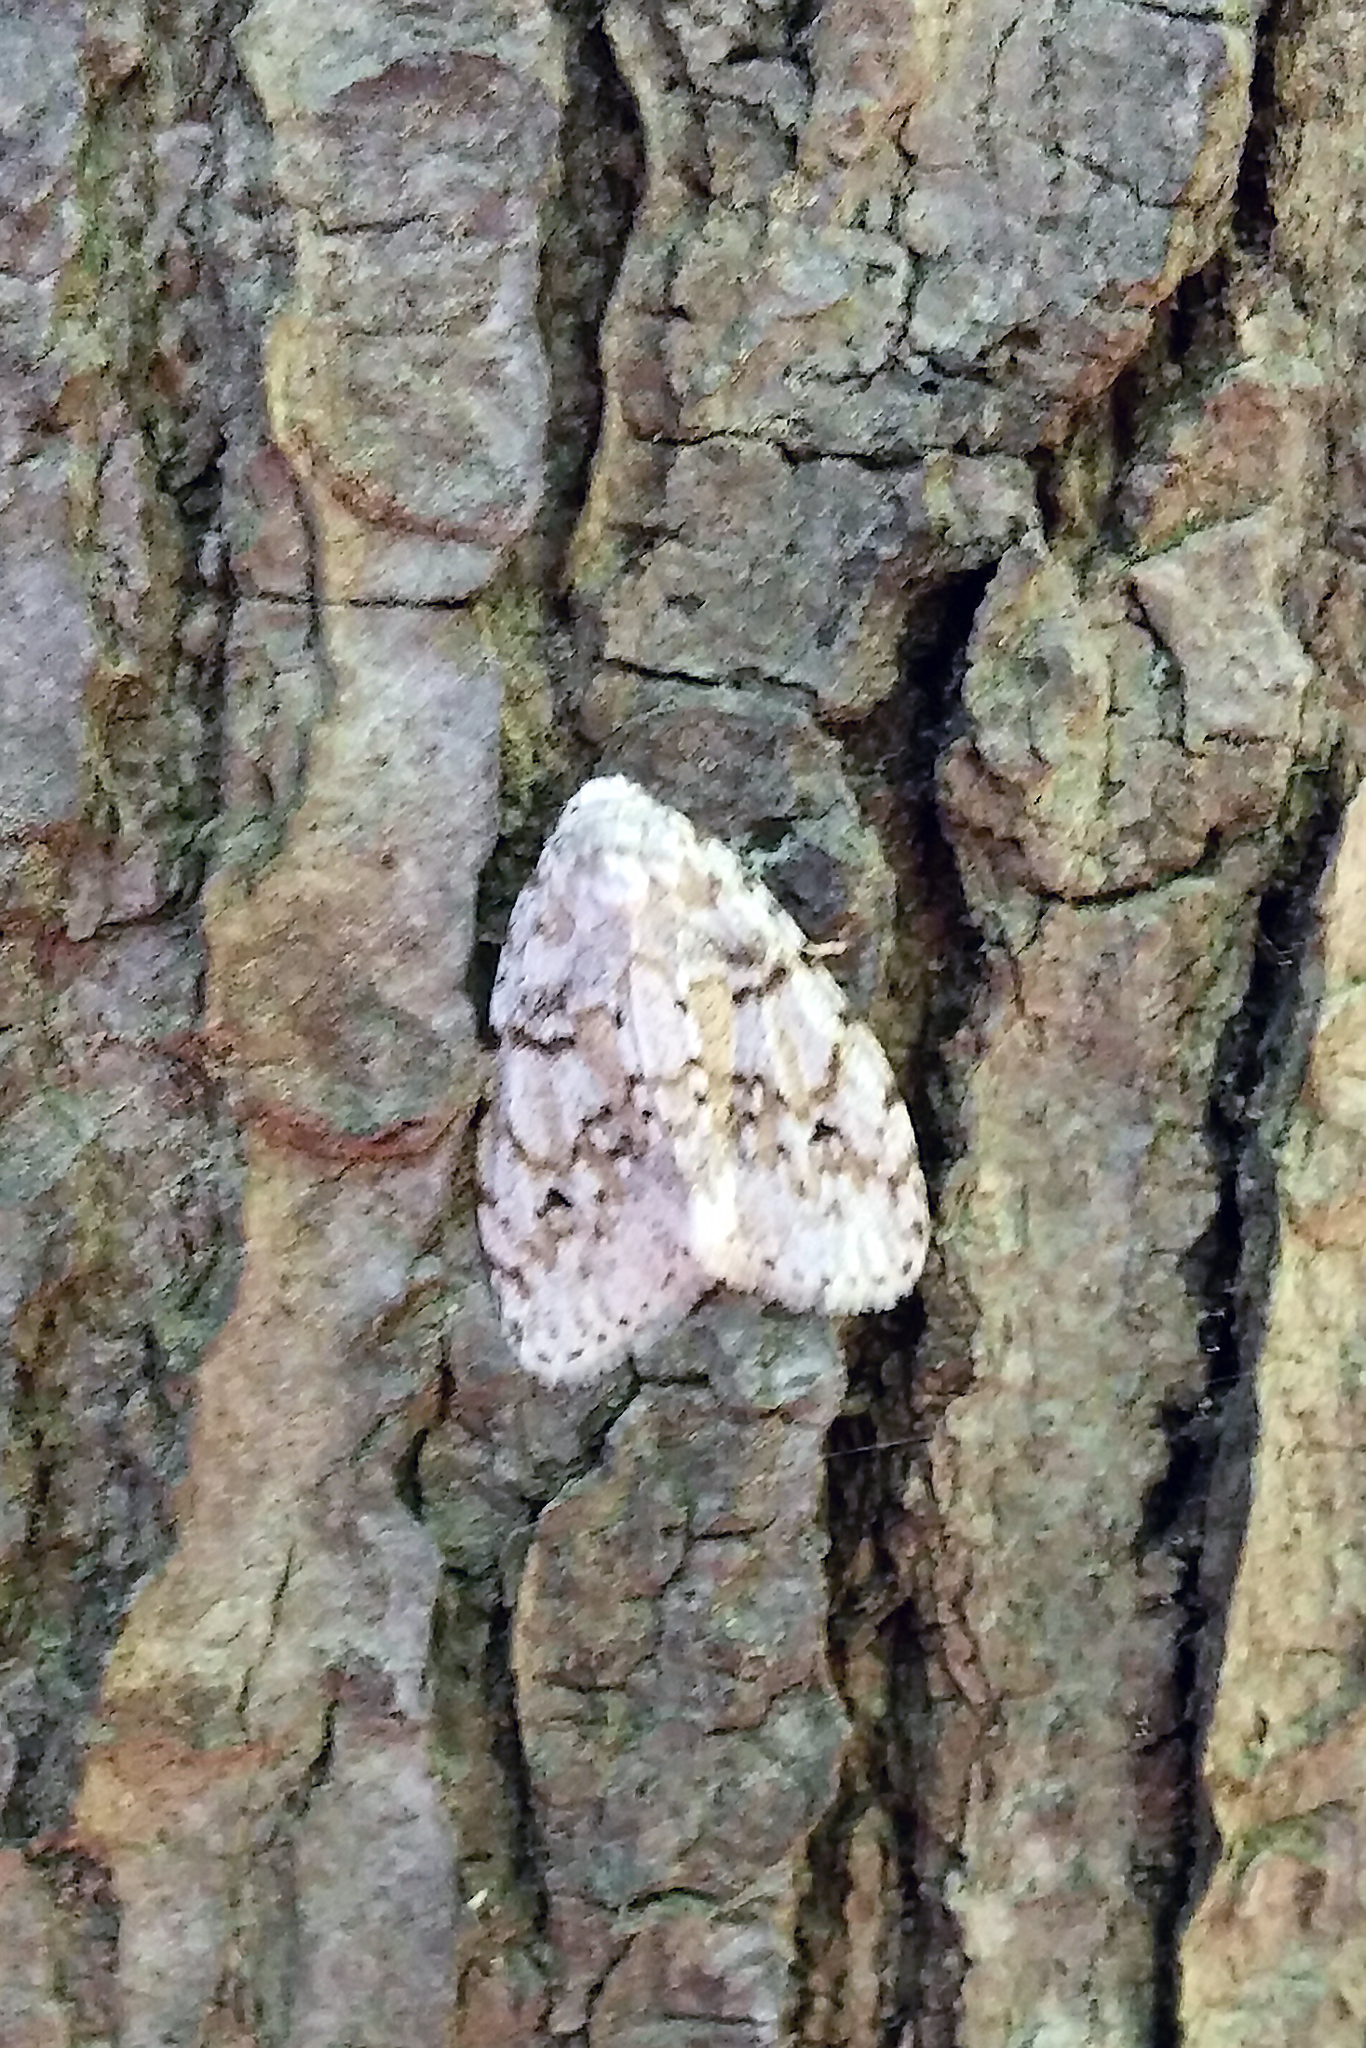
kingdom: Animalia
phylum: Arthropoda
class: Insecta
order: Lepidoptera
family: Erebidae
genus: Clemensia
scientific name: Clemensia albata
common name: Little white lichen moth
